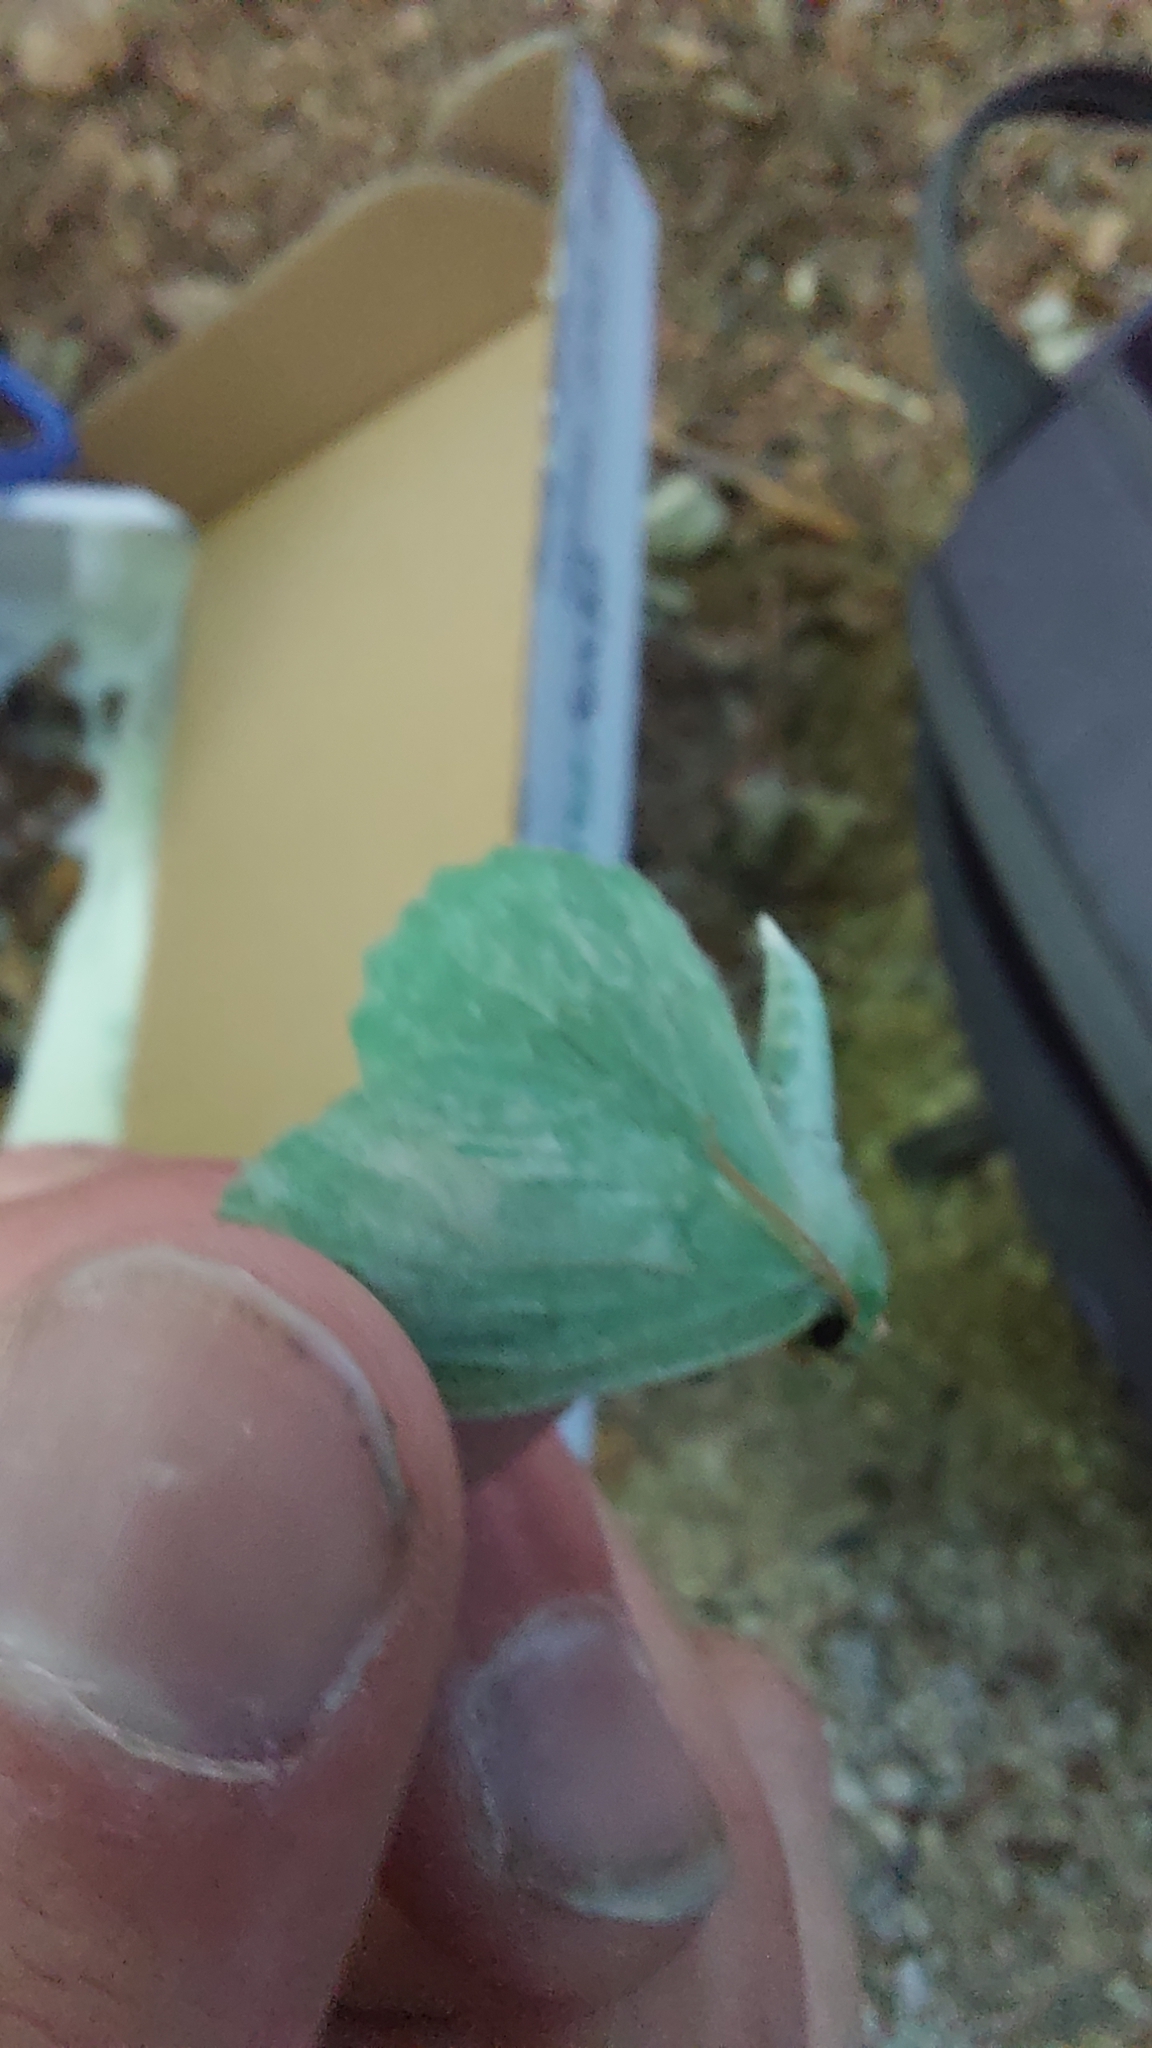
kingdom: Animalia
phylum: Arthropoda
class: Insecta
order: Lepidoptera
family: Geometridae
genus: Geometra
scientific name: Geometra papilionaria
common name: Large emerald
